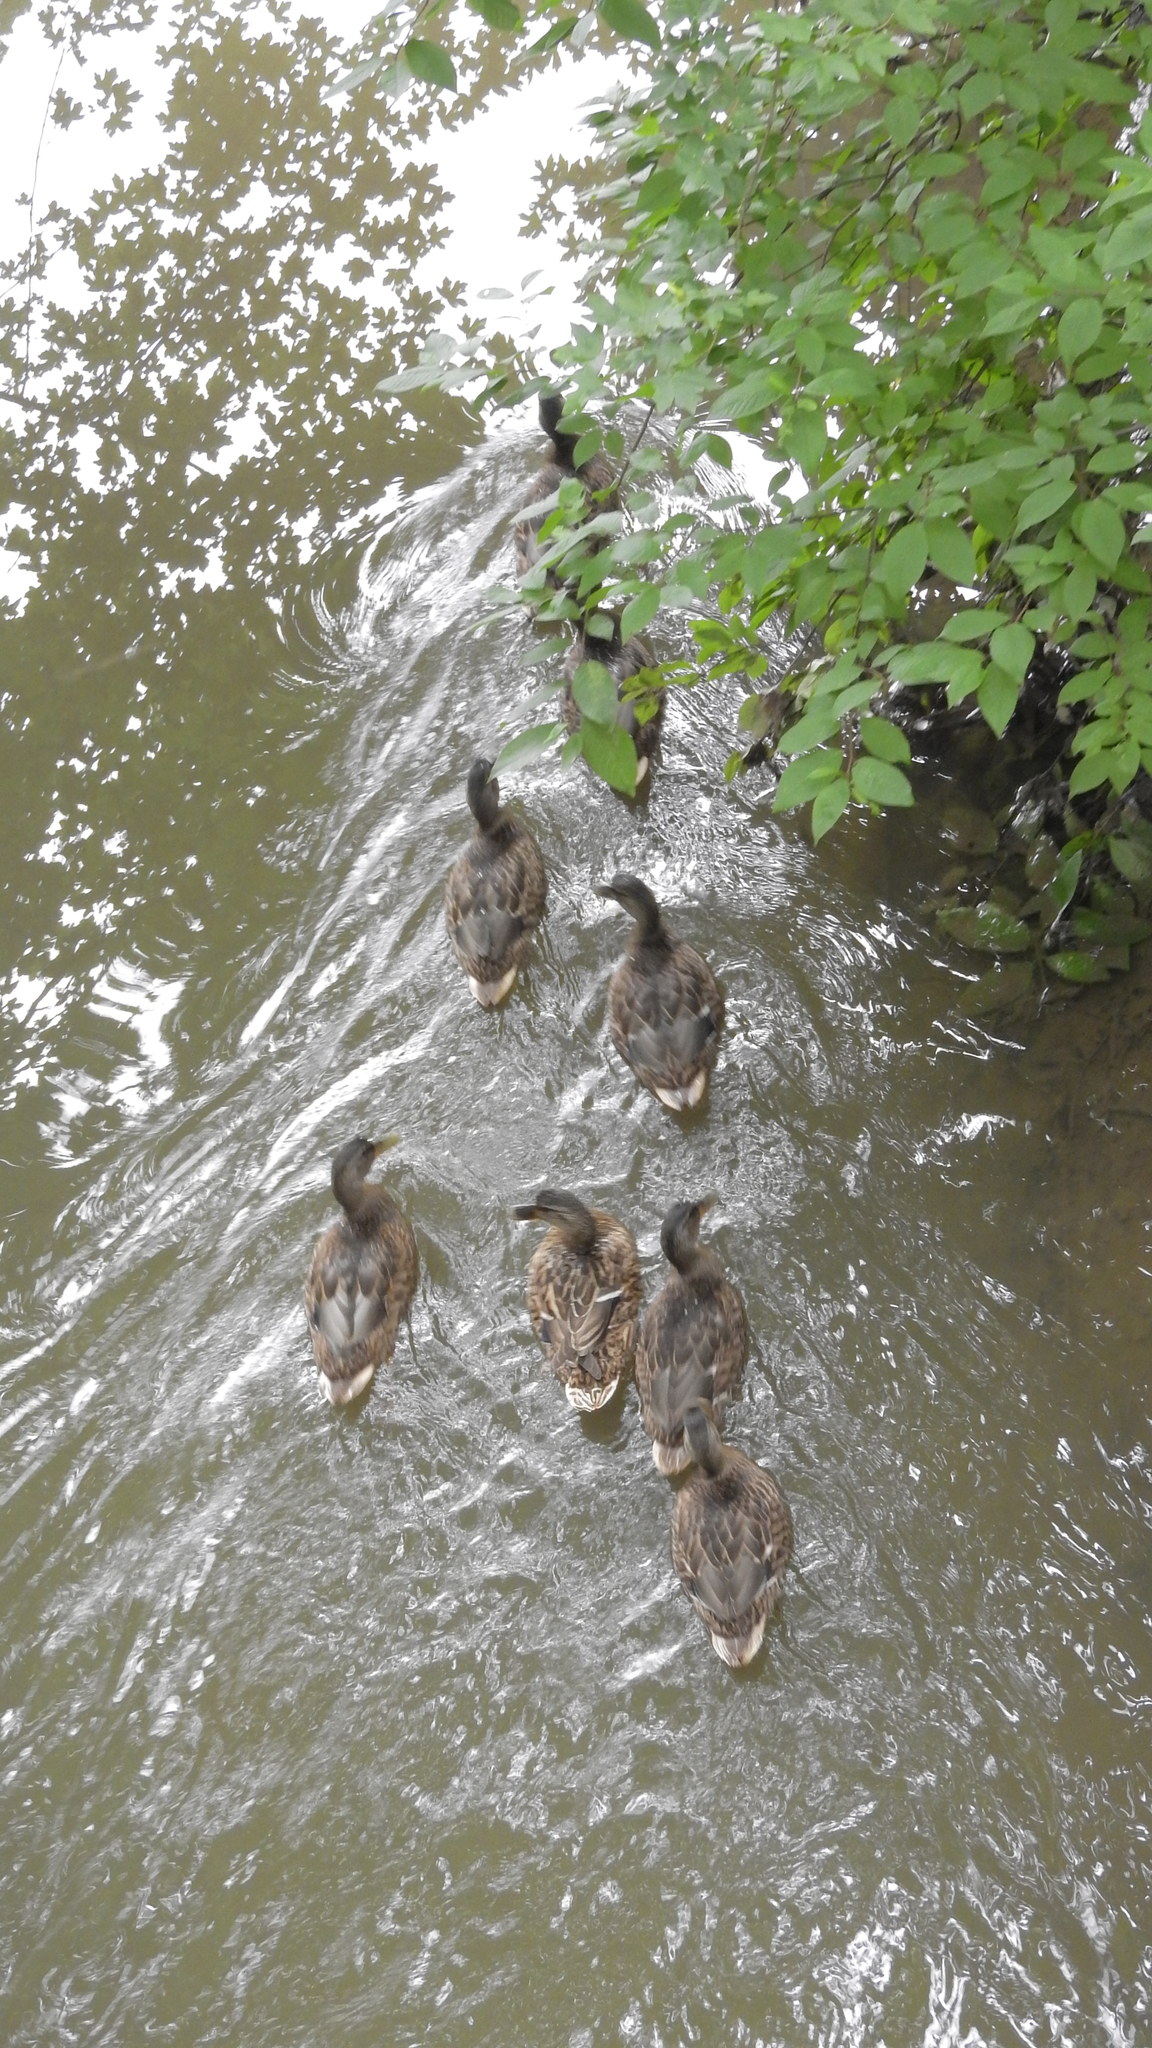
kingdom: Animalia
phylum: Chordata
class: Aves
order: Anseriformes
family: Anatidae
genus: Anas
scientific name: Anas platyrhynchos
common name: Mallard
